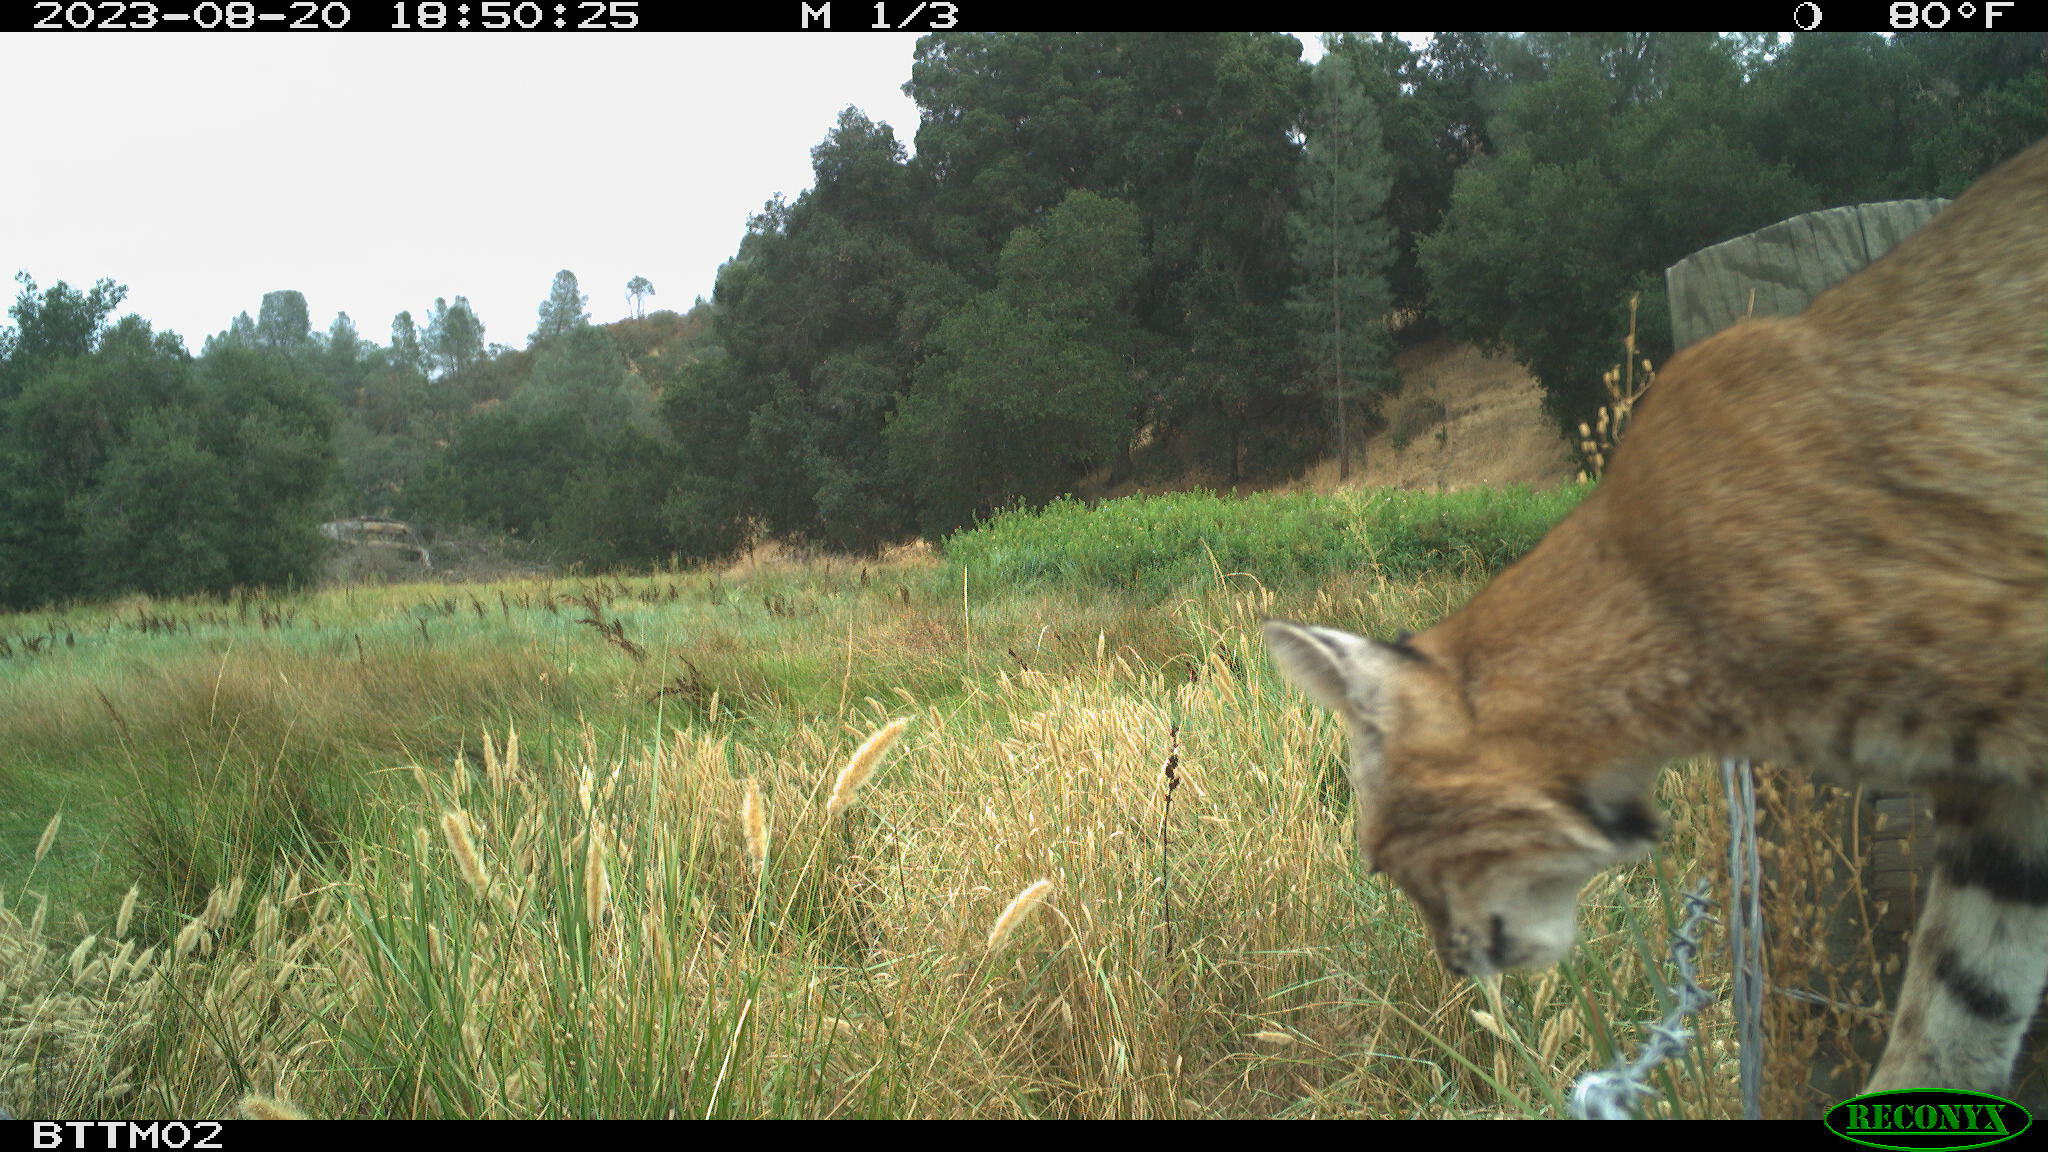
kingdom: Animalia
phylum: Chordata
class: Mammalia
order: Carnivora
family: Felidae
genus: Lynx
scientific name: Lynx rufus
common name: Bobcat
